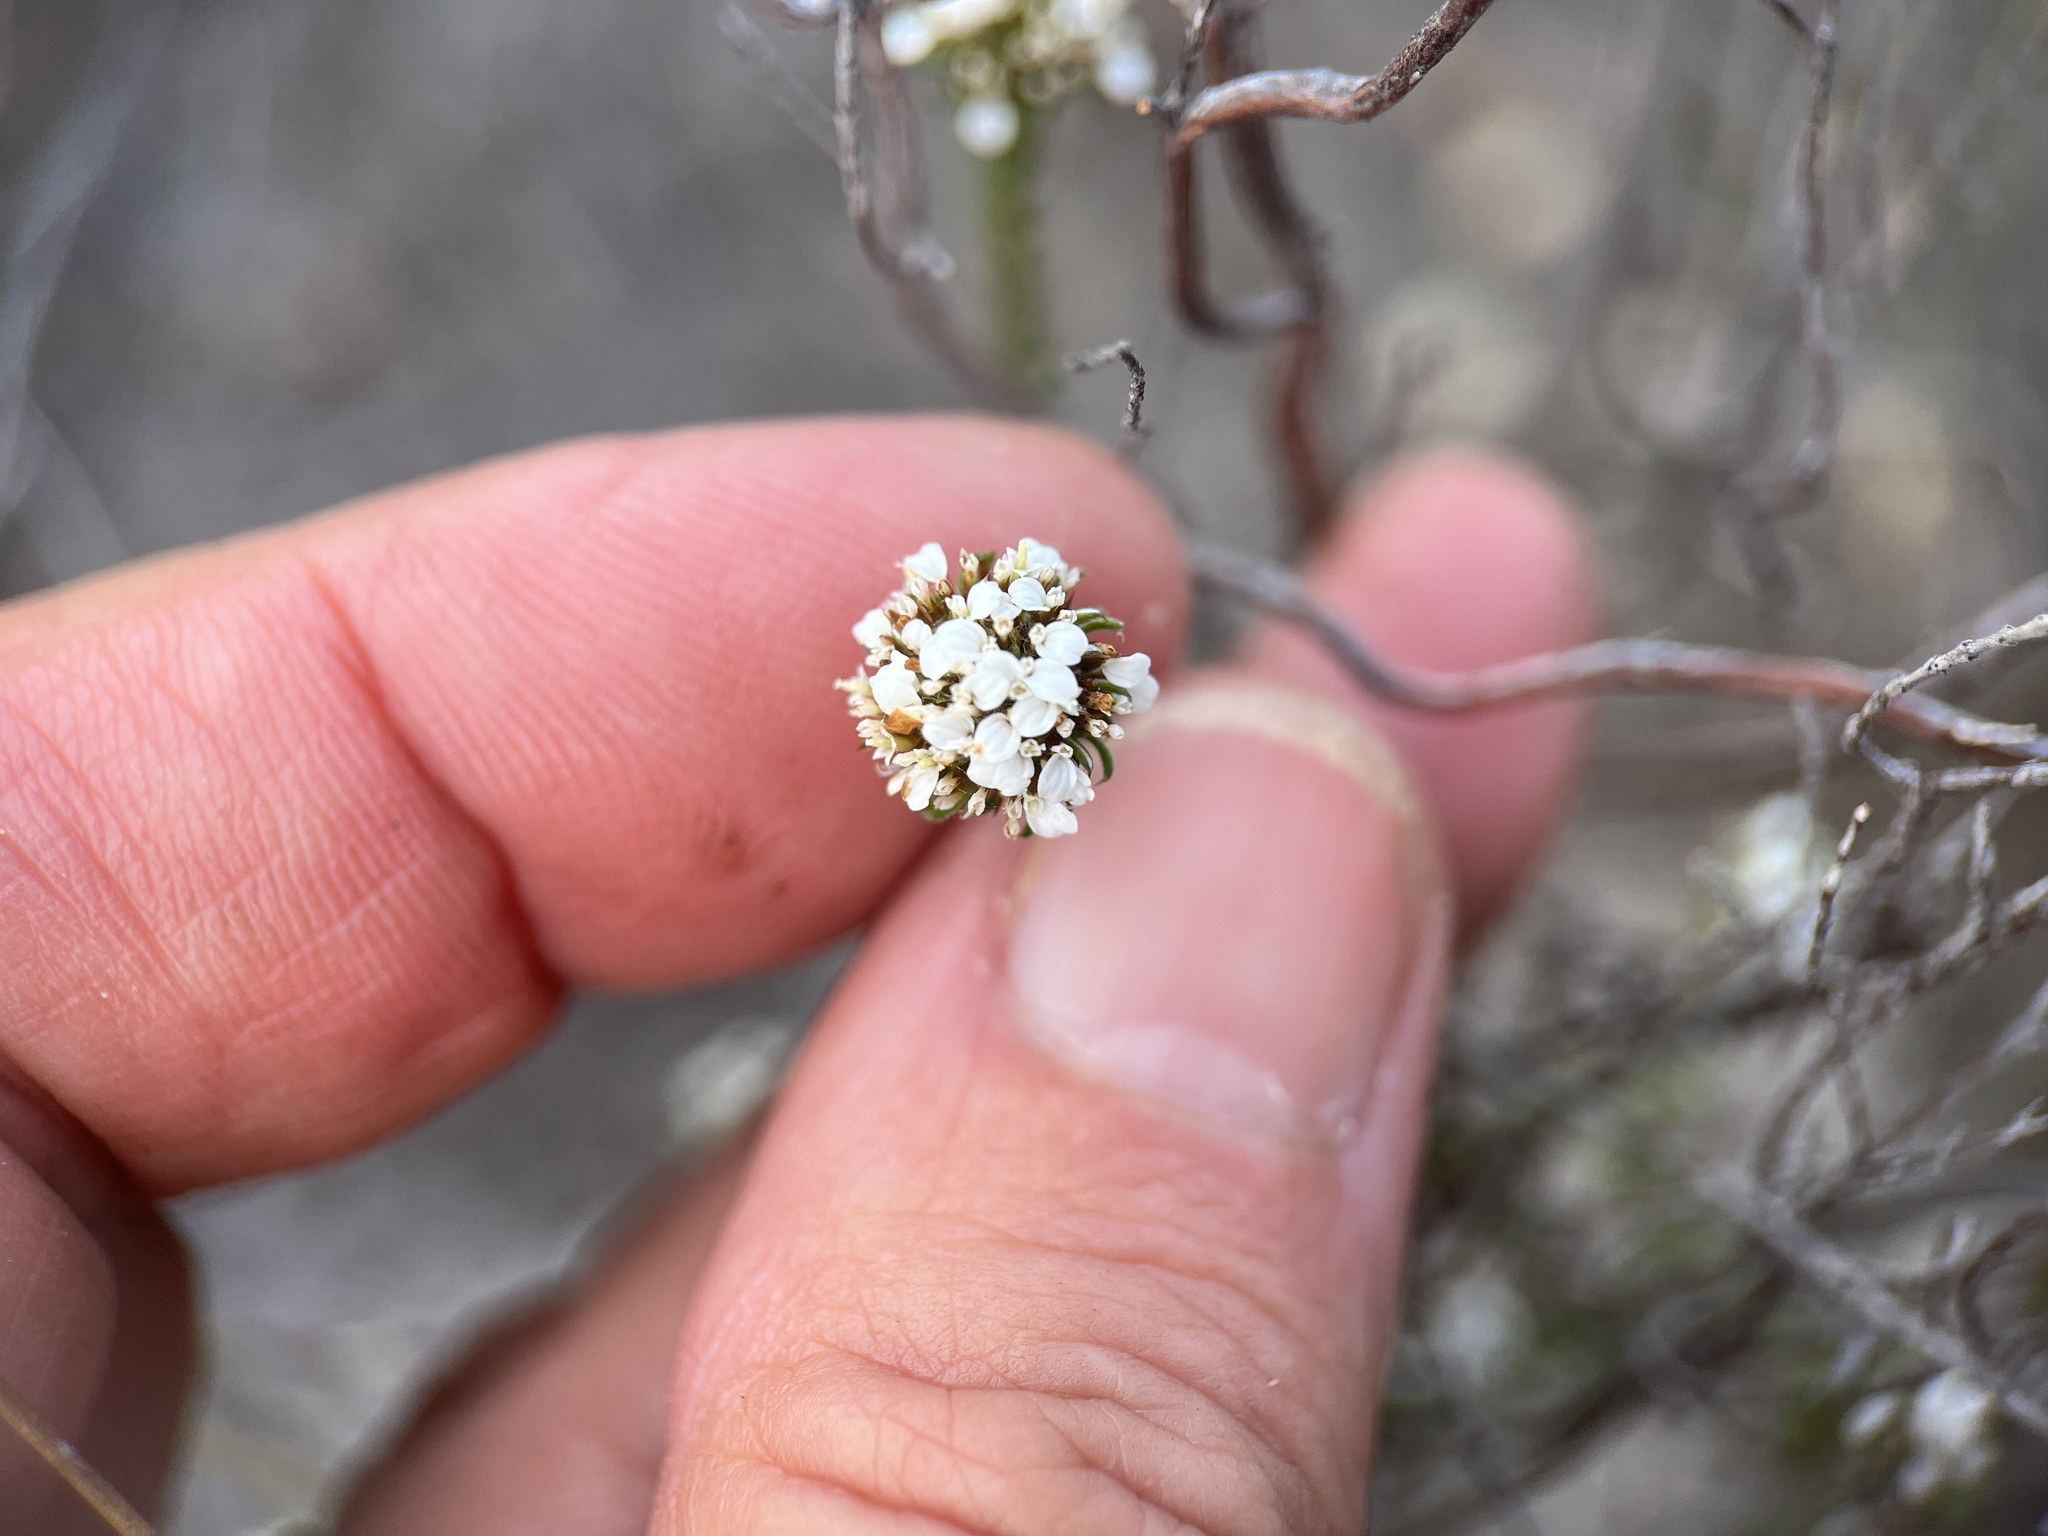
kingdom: Plantae
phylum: Tracheophyta
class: Magnoliopsida
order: Asterales
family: Asteraceae
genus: Disparago
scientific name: Disparago anomala
